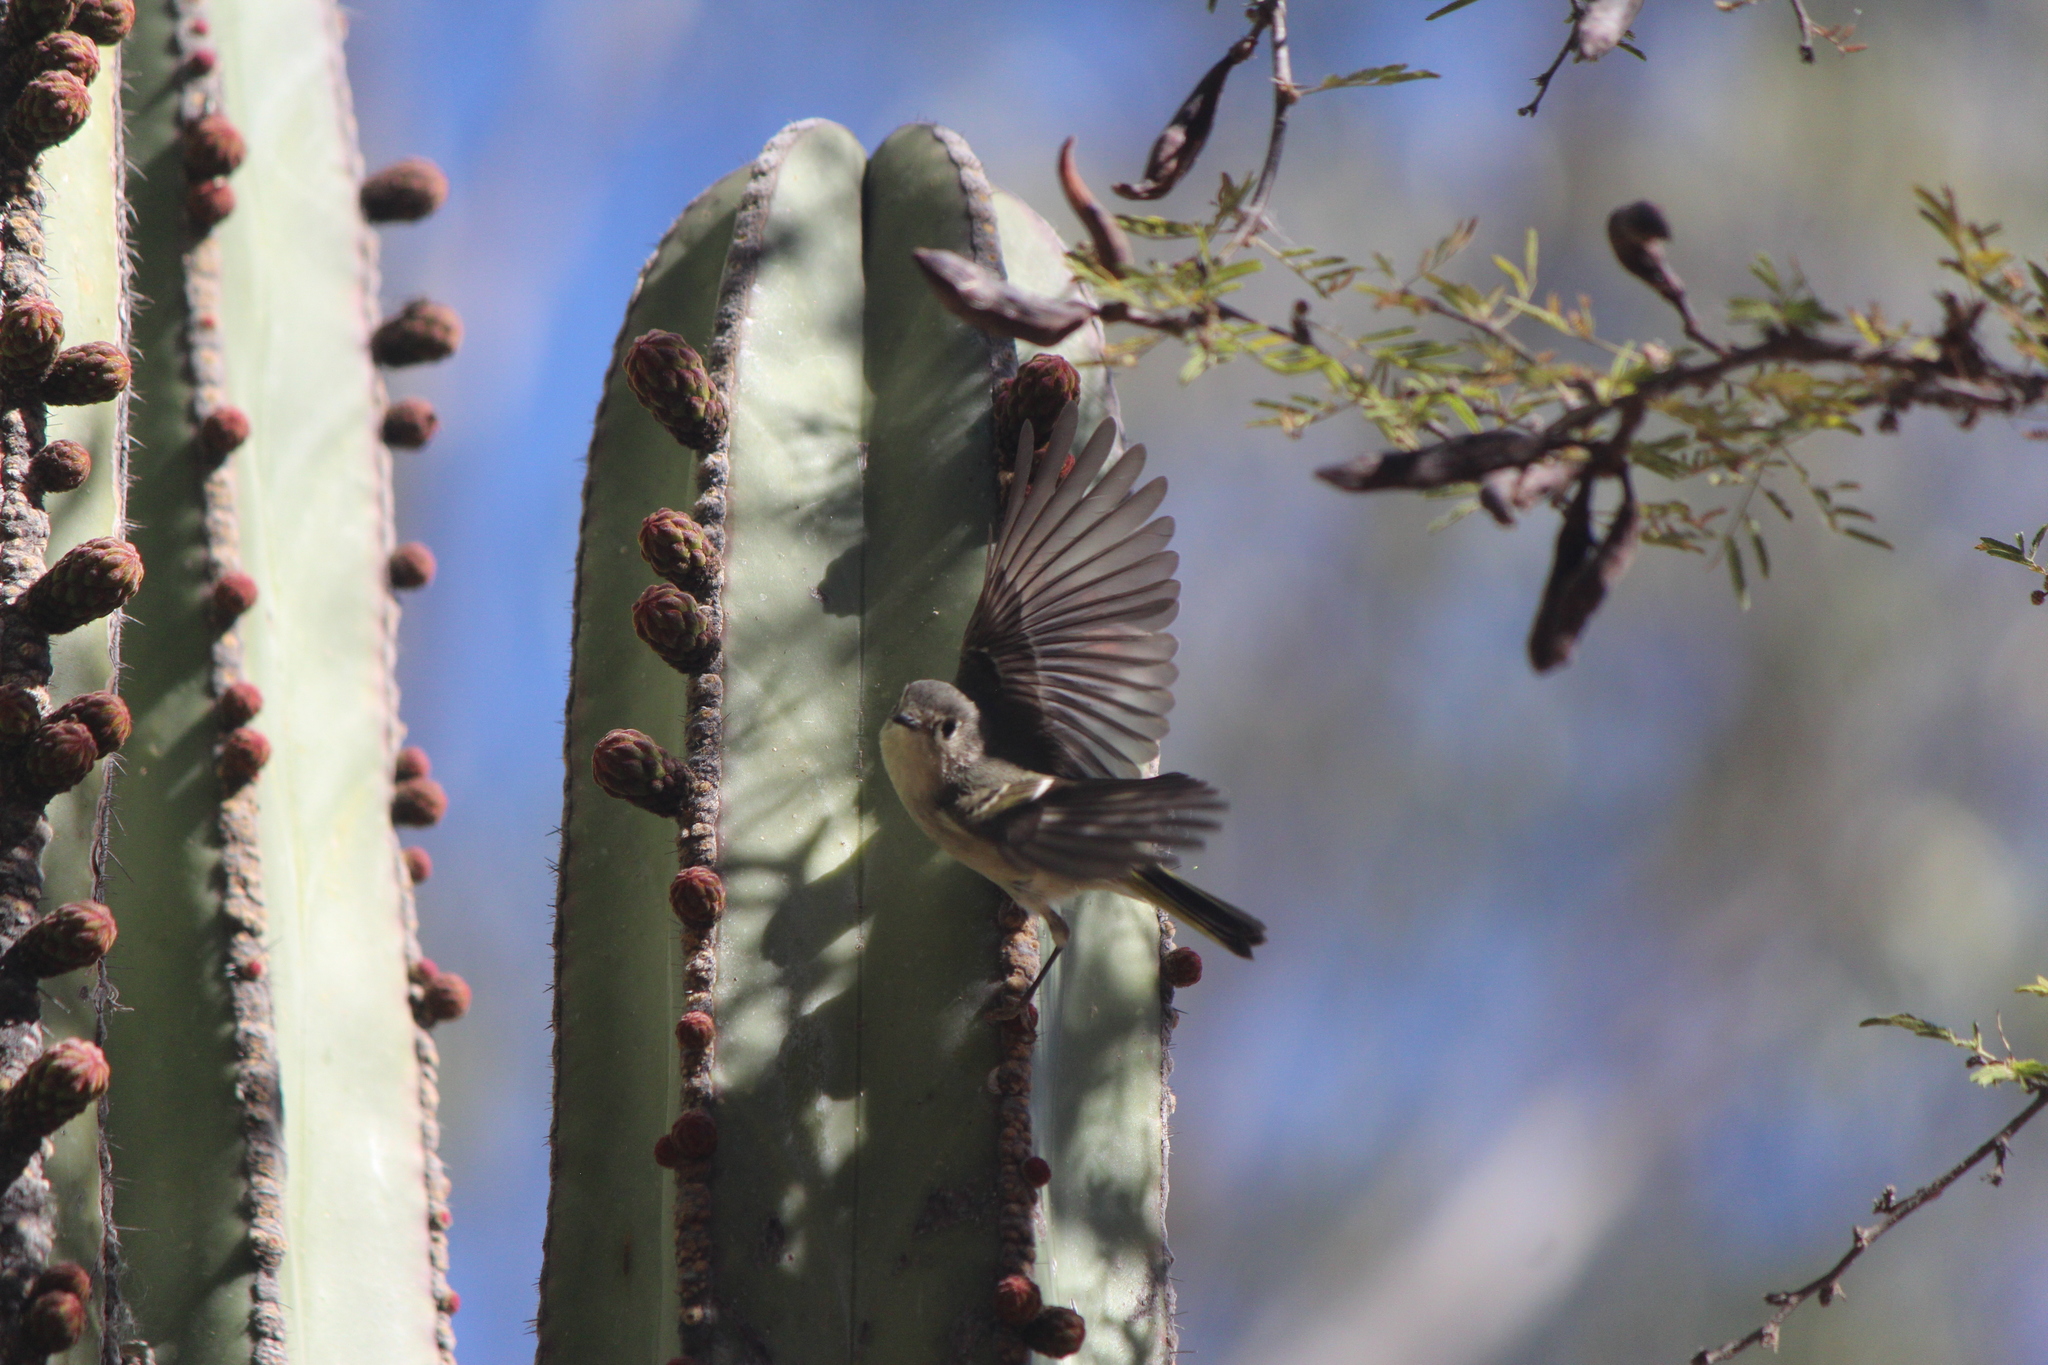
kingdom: Animalia
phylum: Chordata
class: Aves
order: Passeriformes
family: Regulidae
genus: Regulus
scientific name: Regulus calendula
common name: Ruby-crowned kinglet
